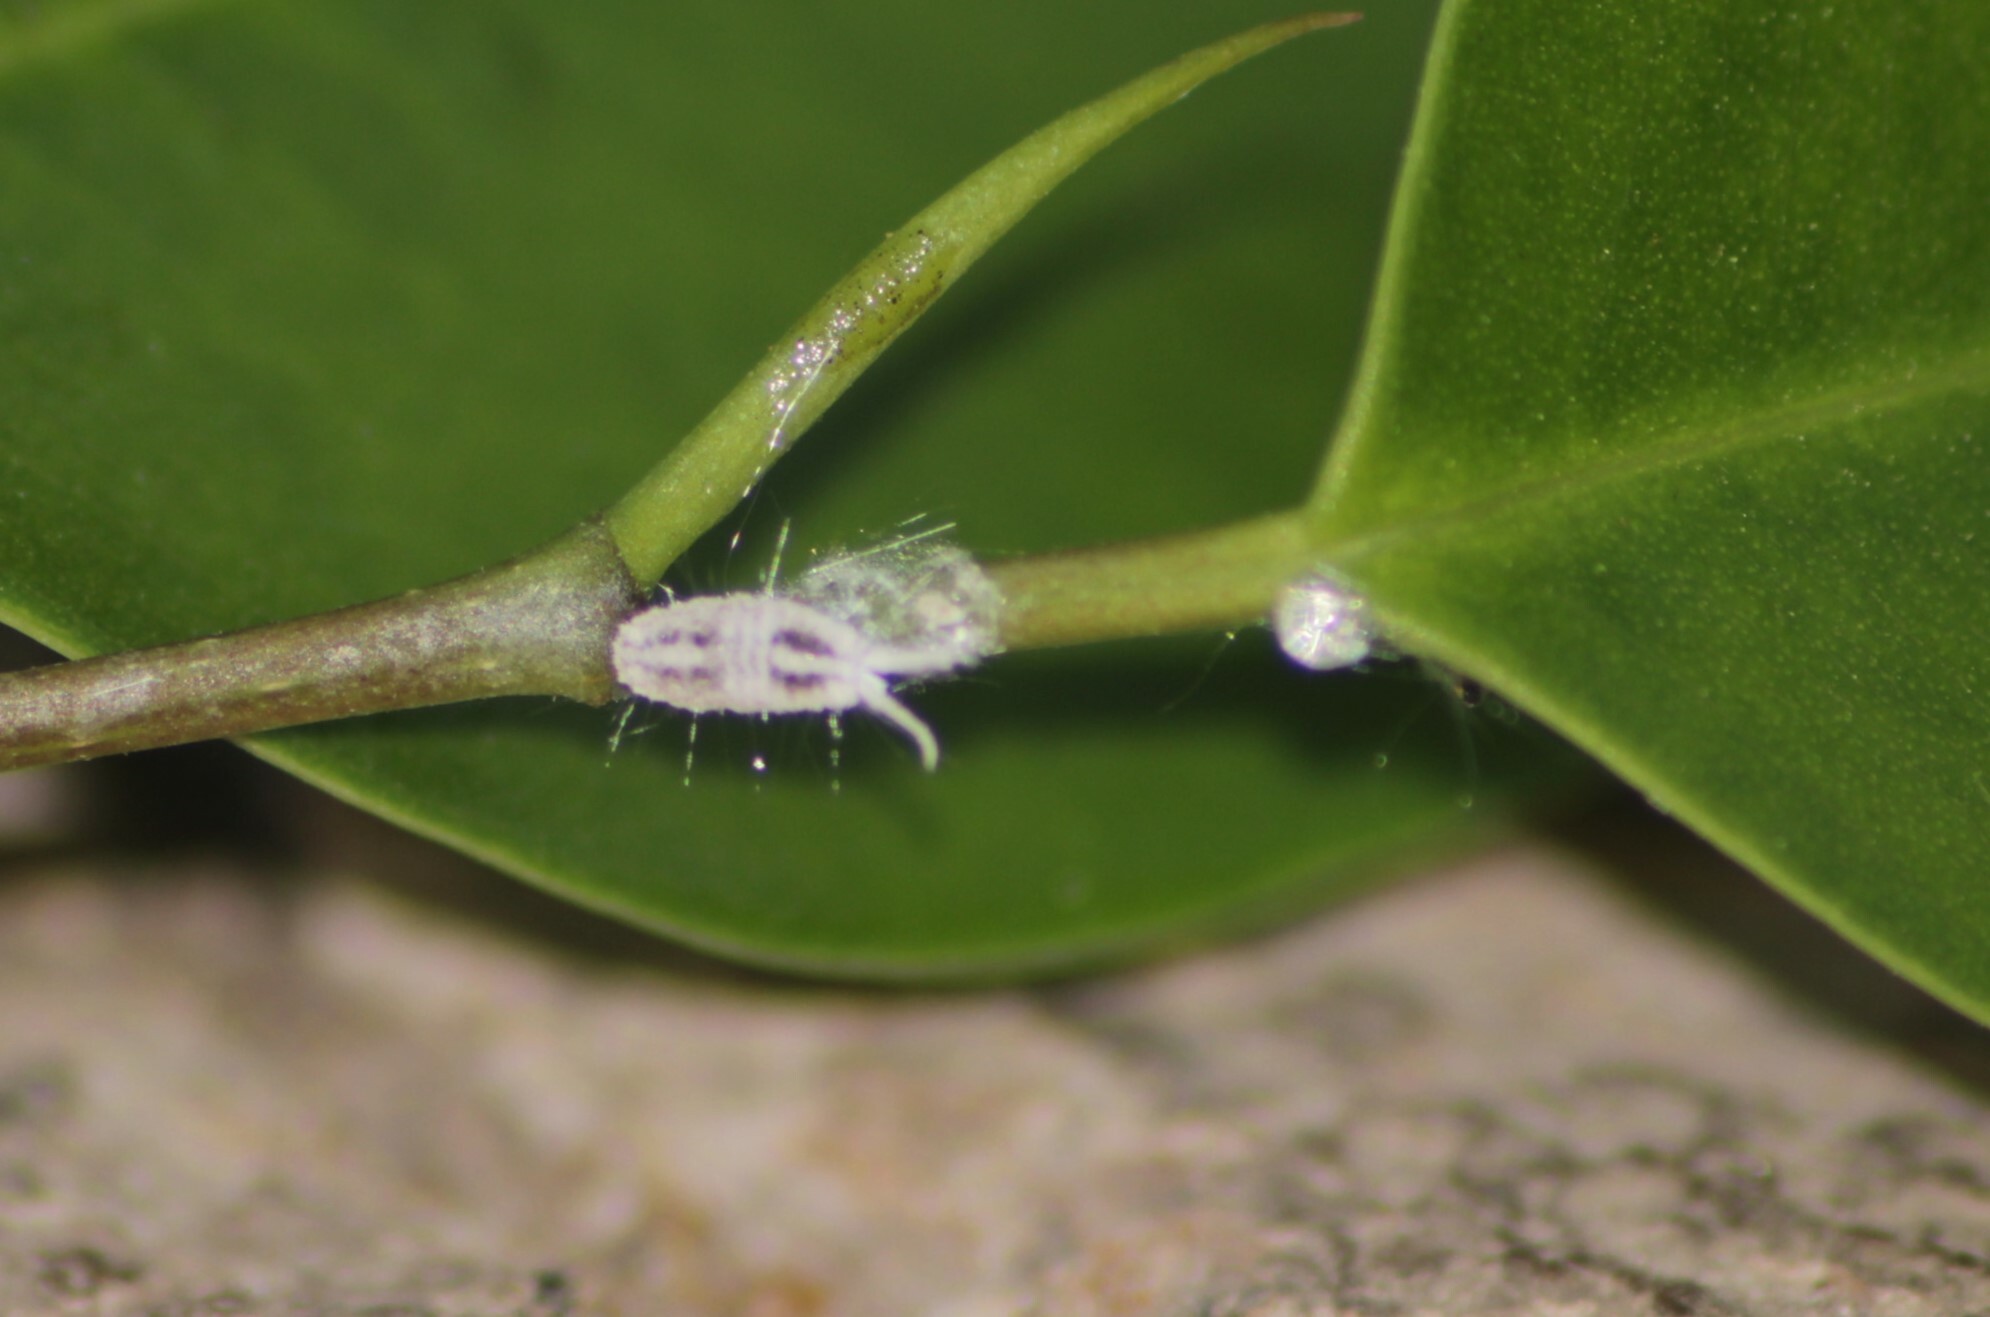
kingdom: Animalia
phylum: Arthropoda
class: Insecta
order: Hemiptera
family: Pseudococcidae
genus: Ferrisia
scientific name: Ferrisia virgata
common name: Striped mealy bug
